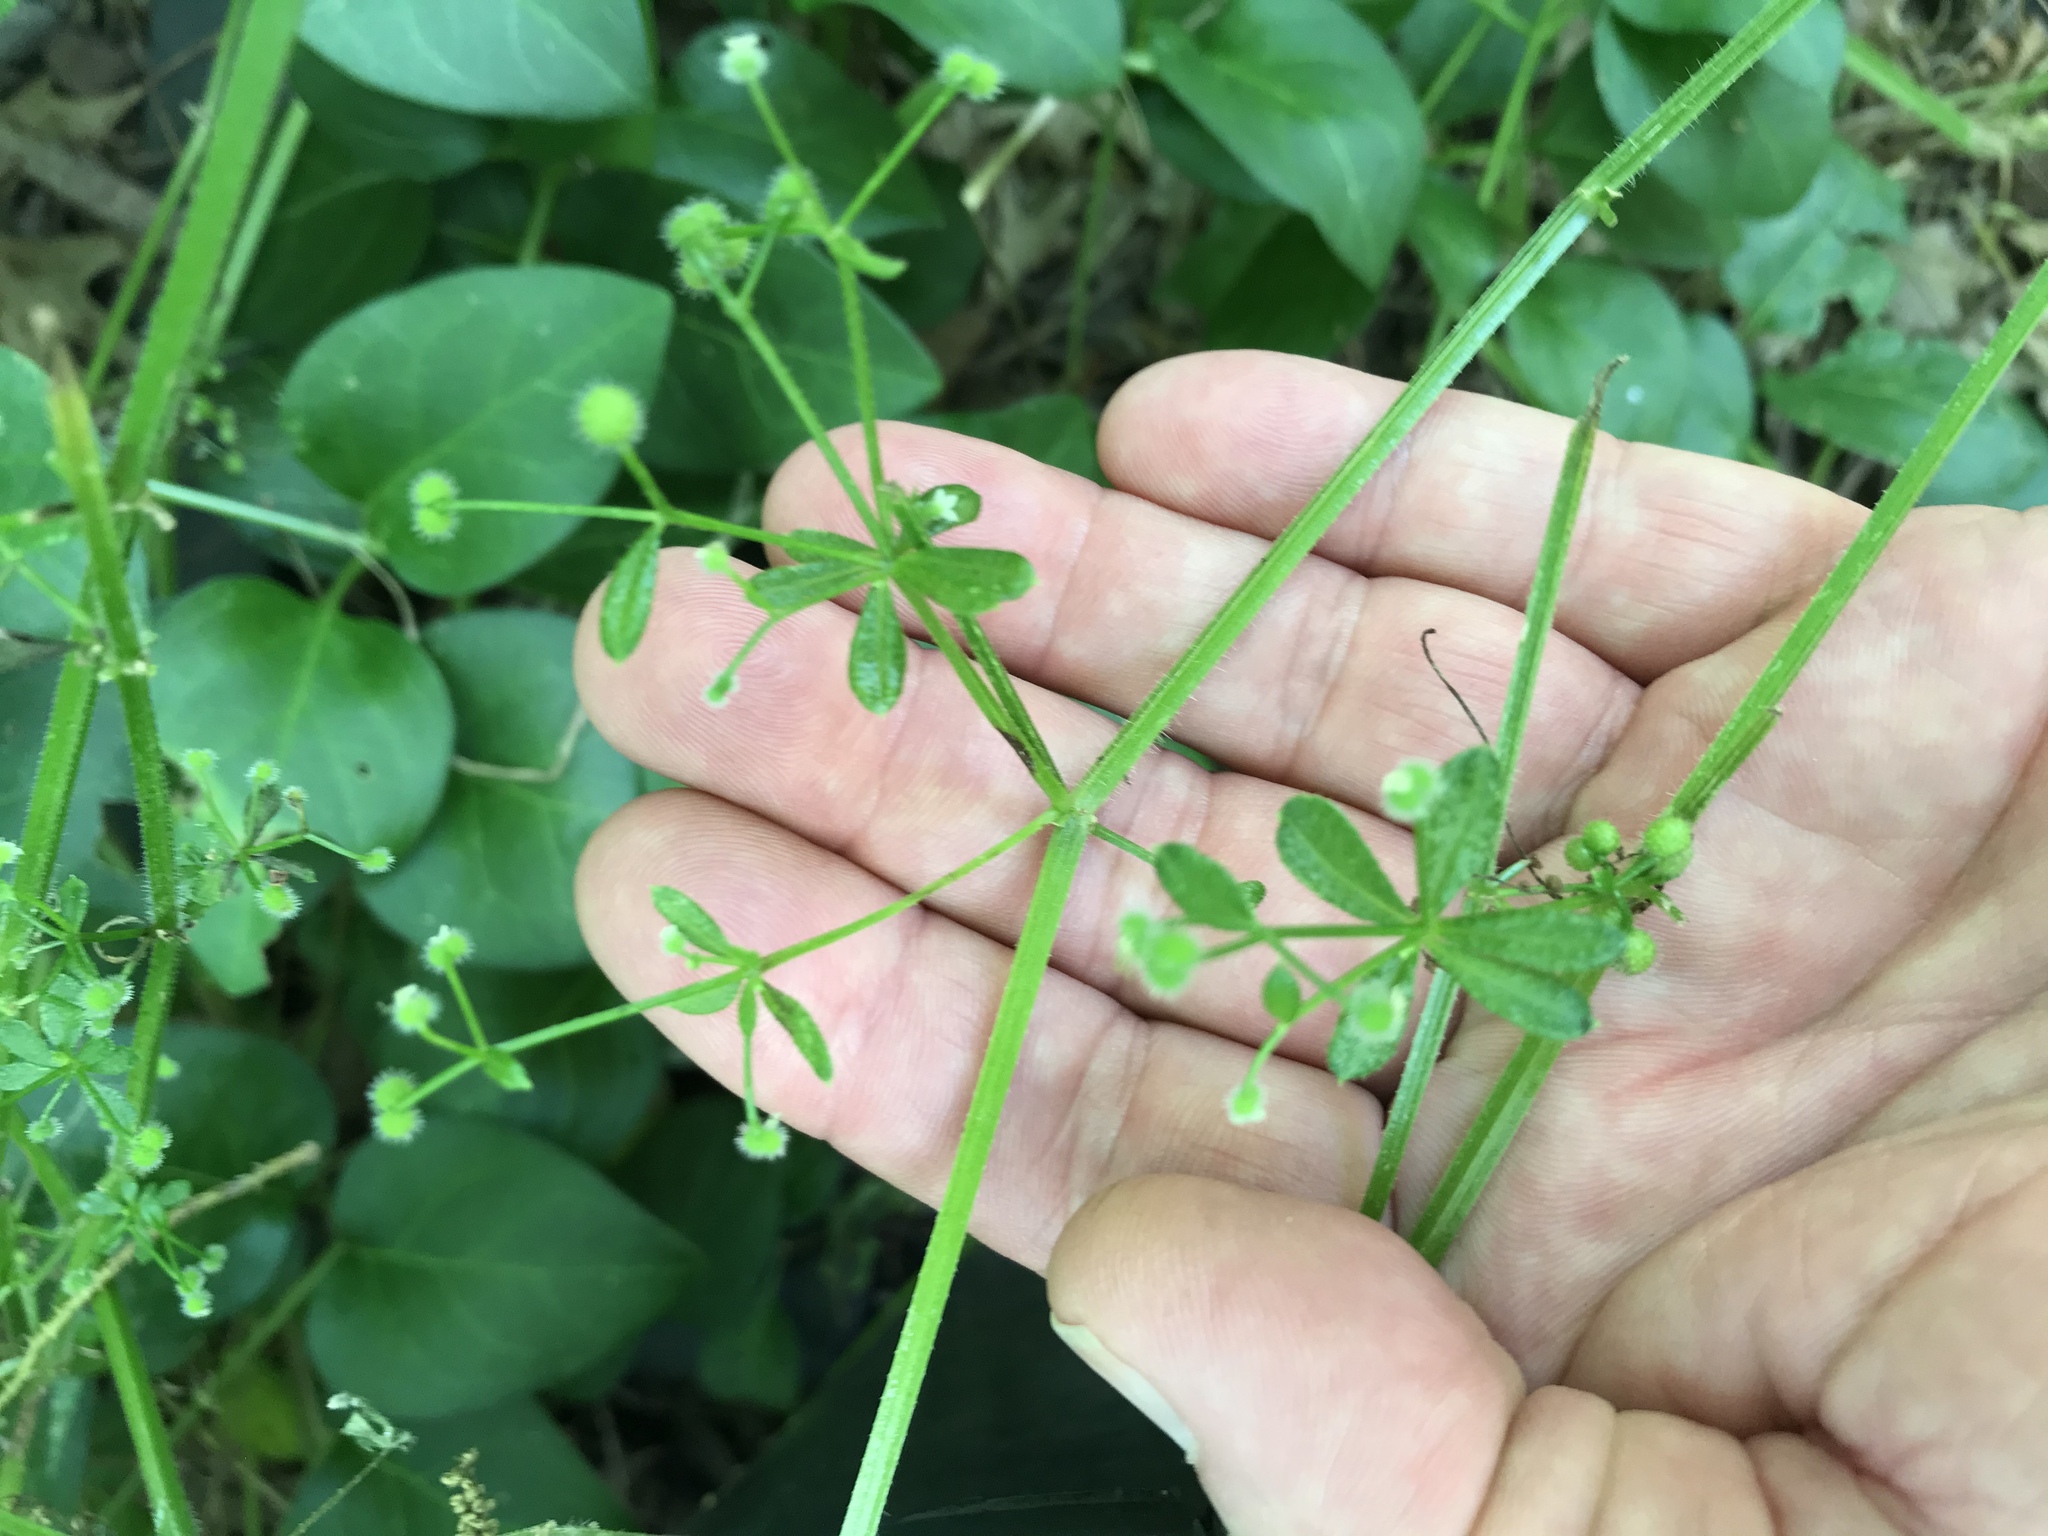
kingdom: Plantae
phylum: Tracheophyta
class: Magnoliopsida
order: Gentianales
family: Rubiaceae
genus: Galium
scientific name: Galium aparine
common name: Cleavers
